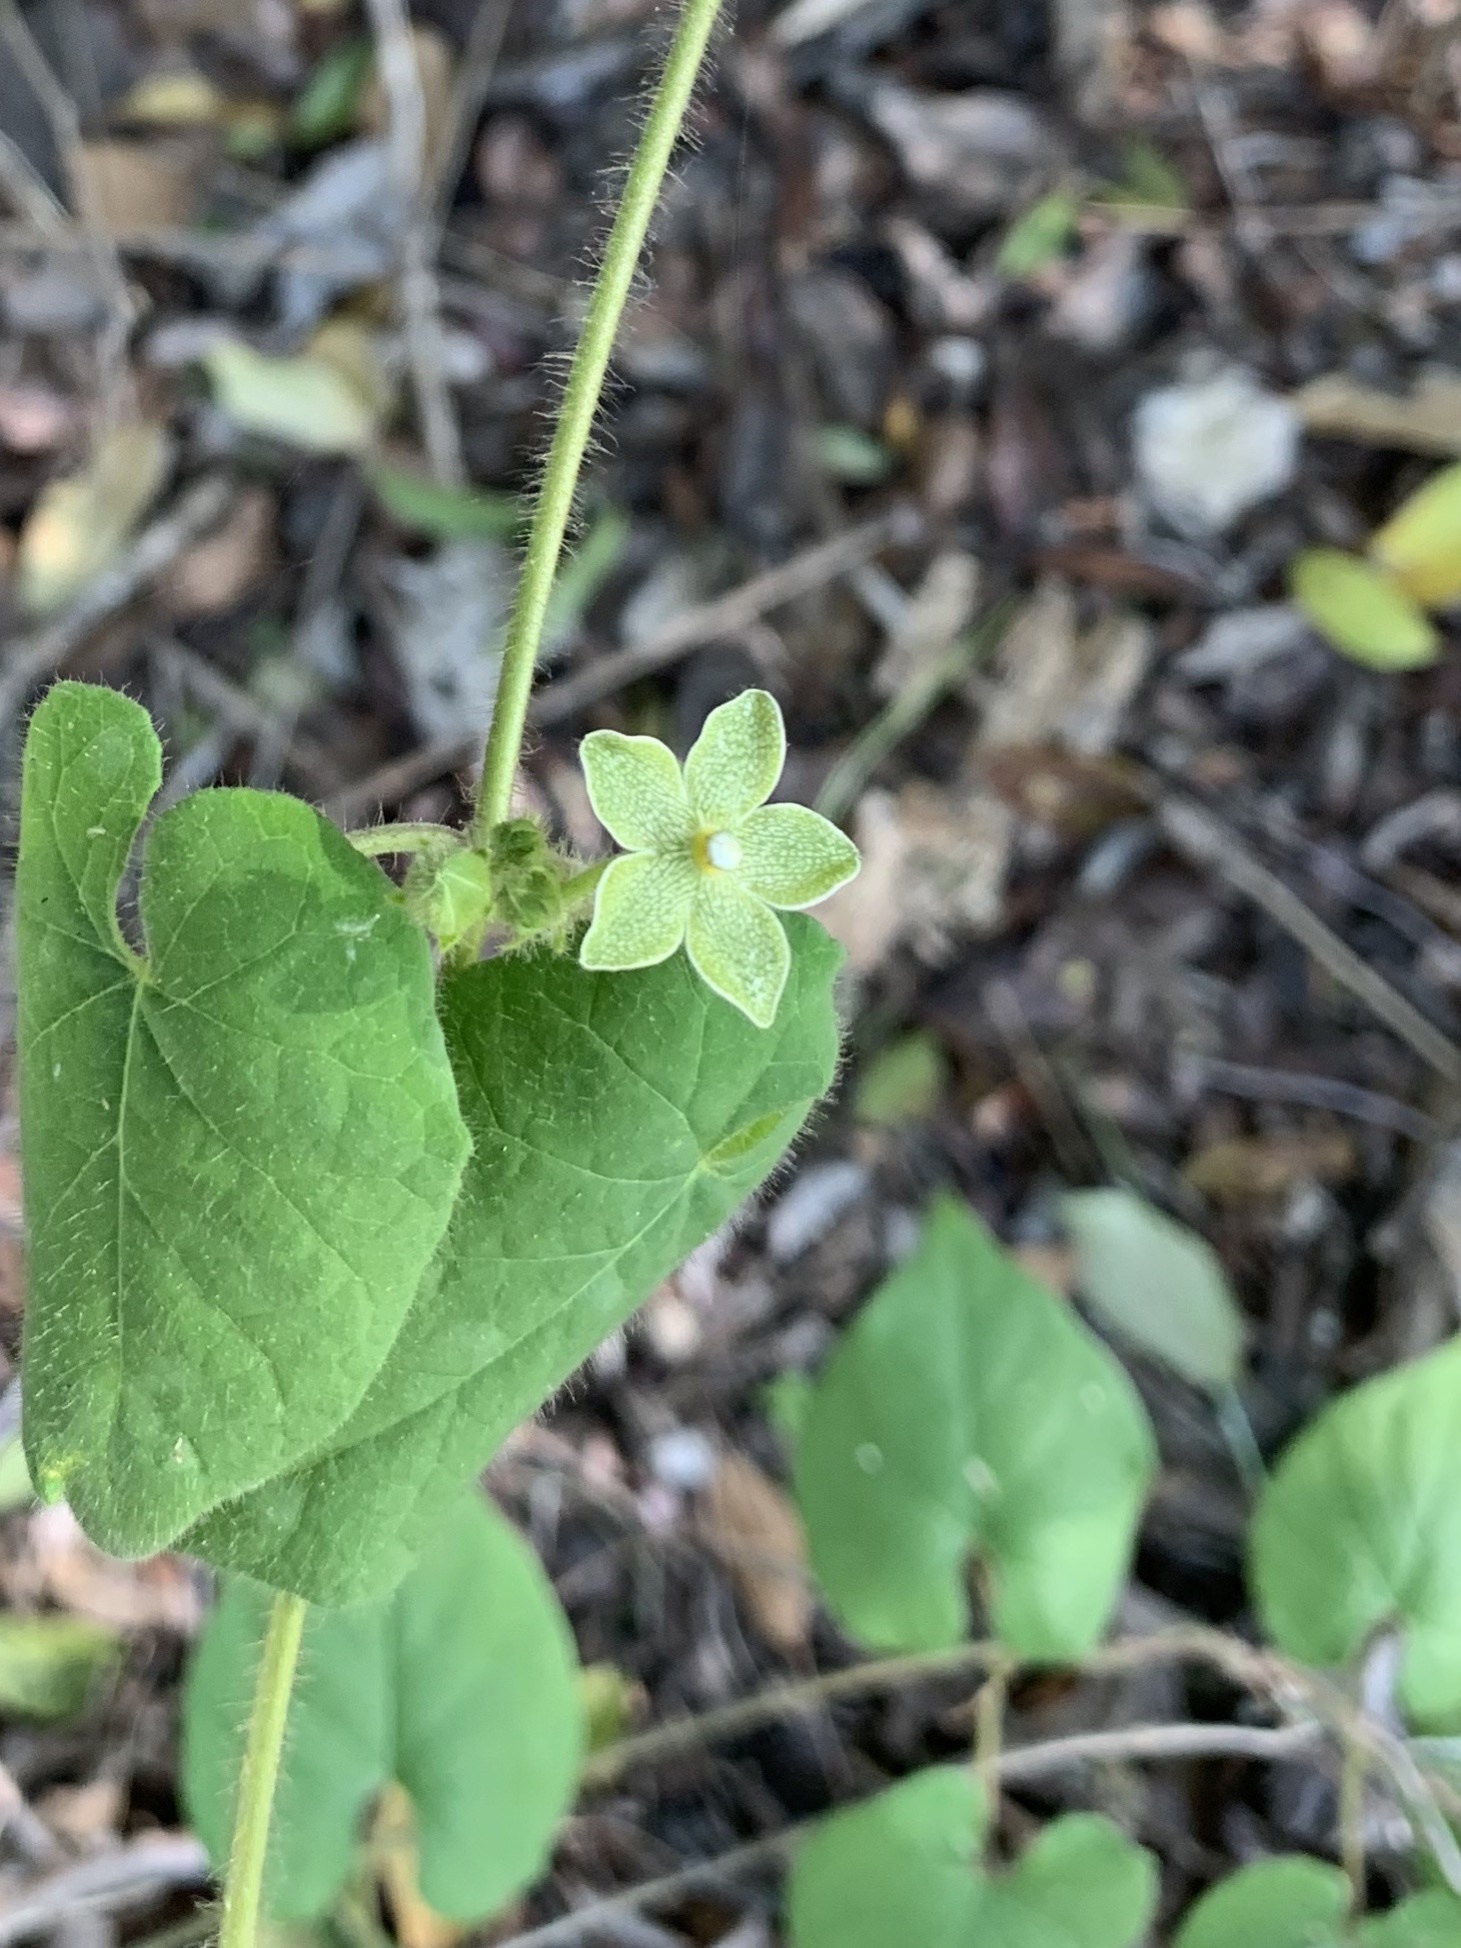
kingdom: Plantae
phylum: Tracheophyta
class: Magnoliopsida
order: Gentianales
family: Apocynaceae
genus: Dictyanthus
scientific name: Dictyanthus reticulatus
